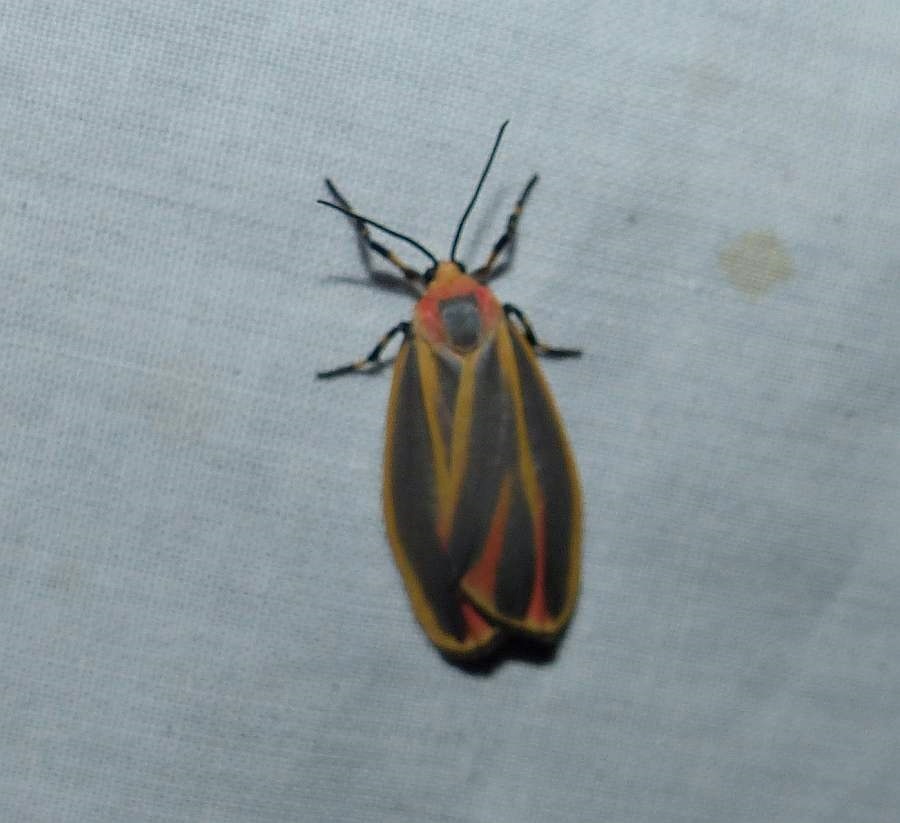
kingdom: Animalia
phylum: Arthropoda
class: Insecta
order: Lepidoptera
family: Erebidae
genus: Hypoprepia
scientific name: Hypoprepia fucosa
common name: Painted lichen moth
